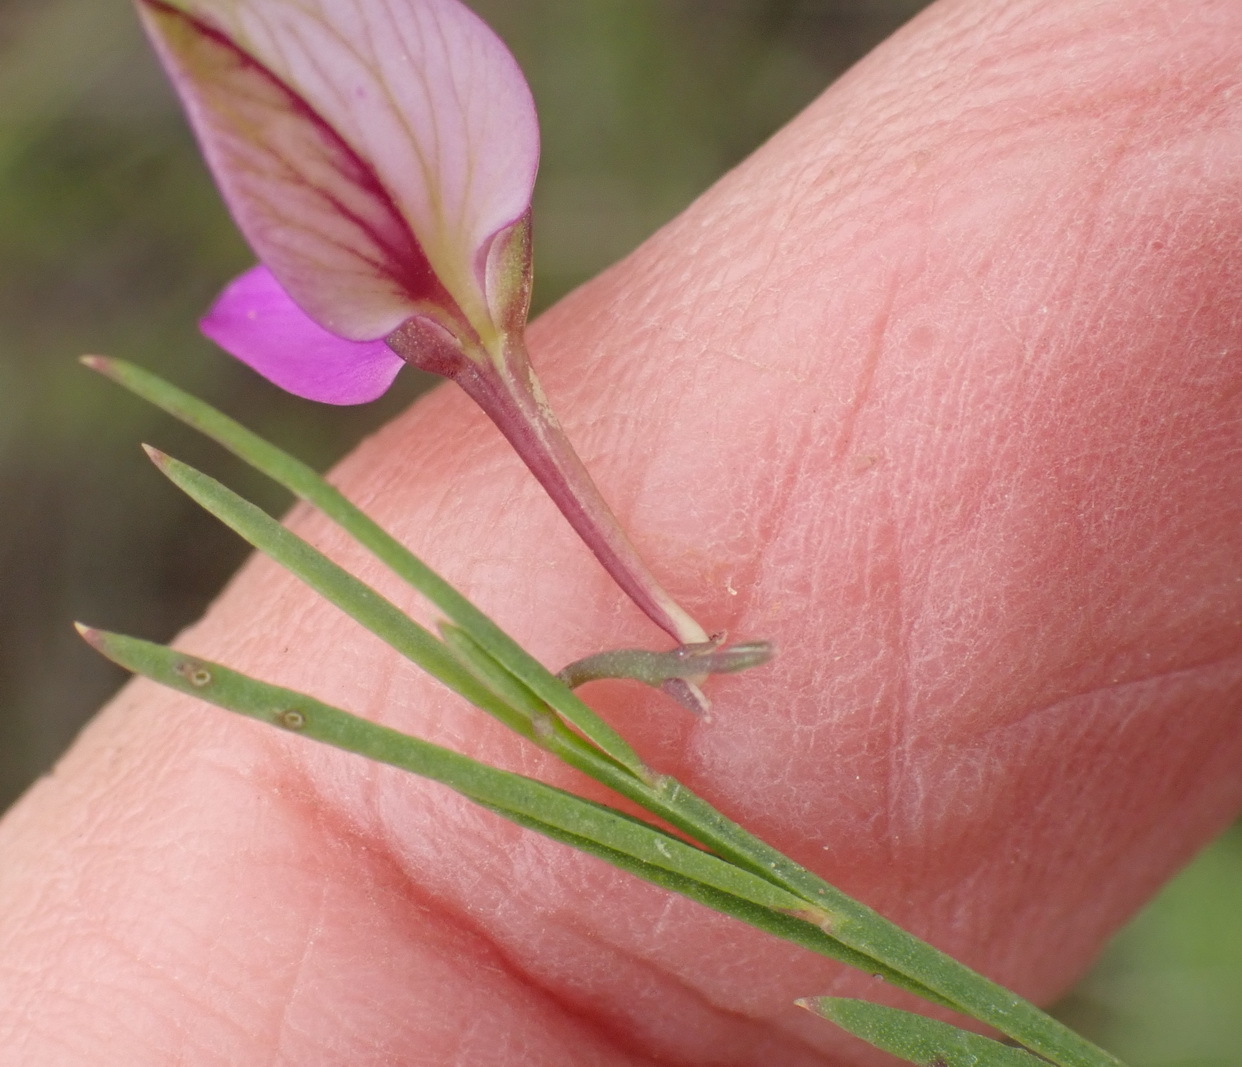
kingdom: Plantae
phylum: Tracheophyta
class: Magnoliopsida
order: Fabales
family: Polygalaceae
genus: Polygala
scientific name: Polygala refracta
